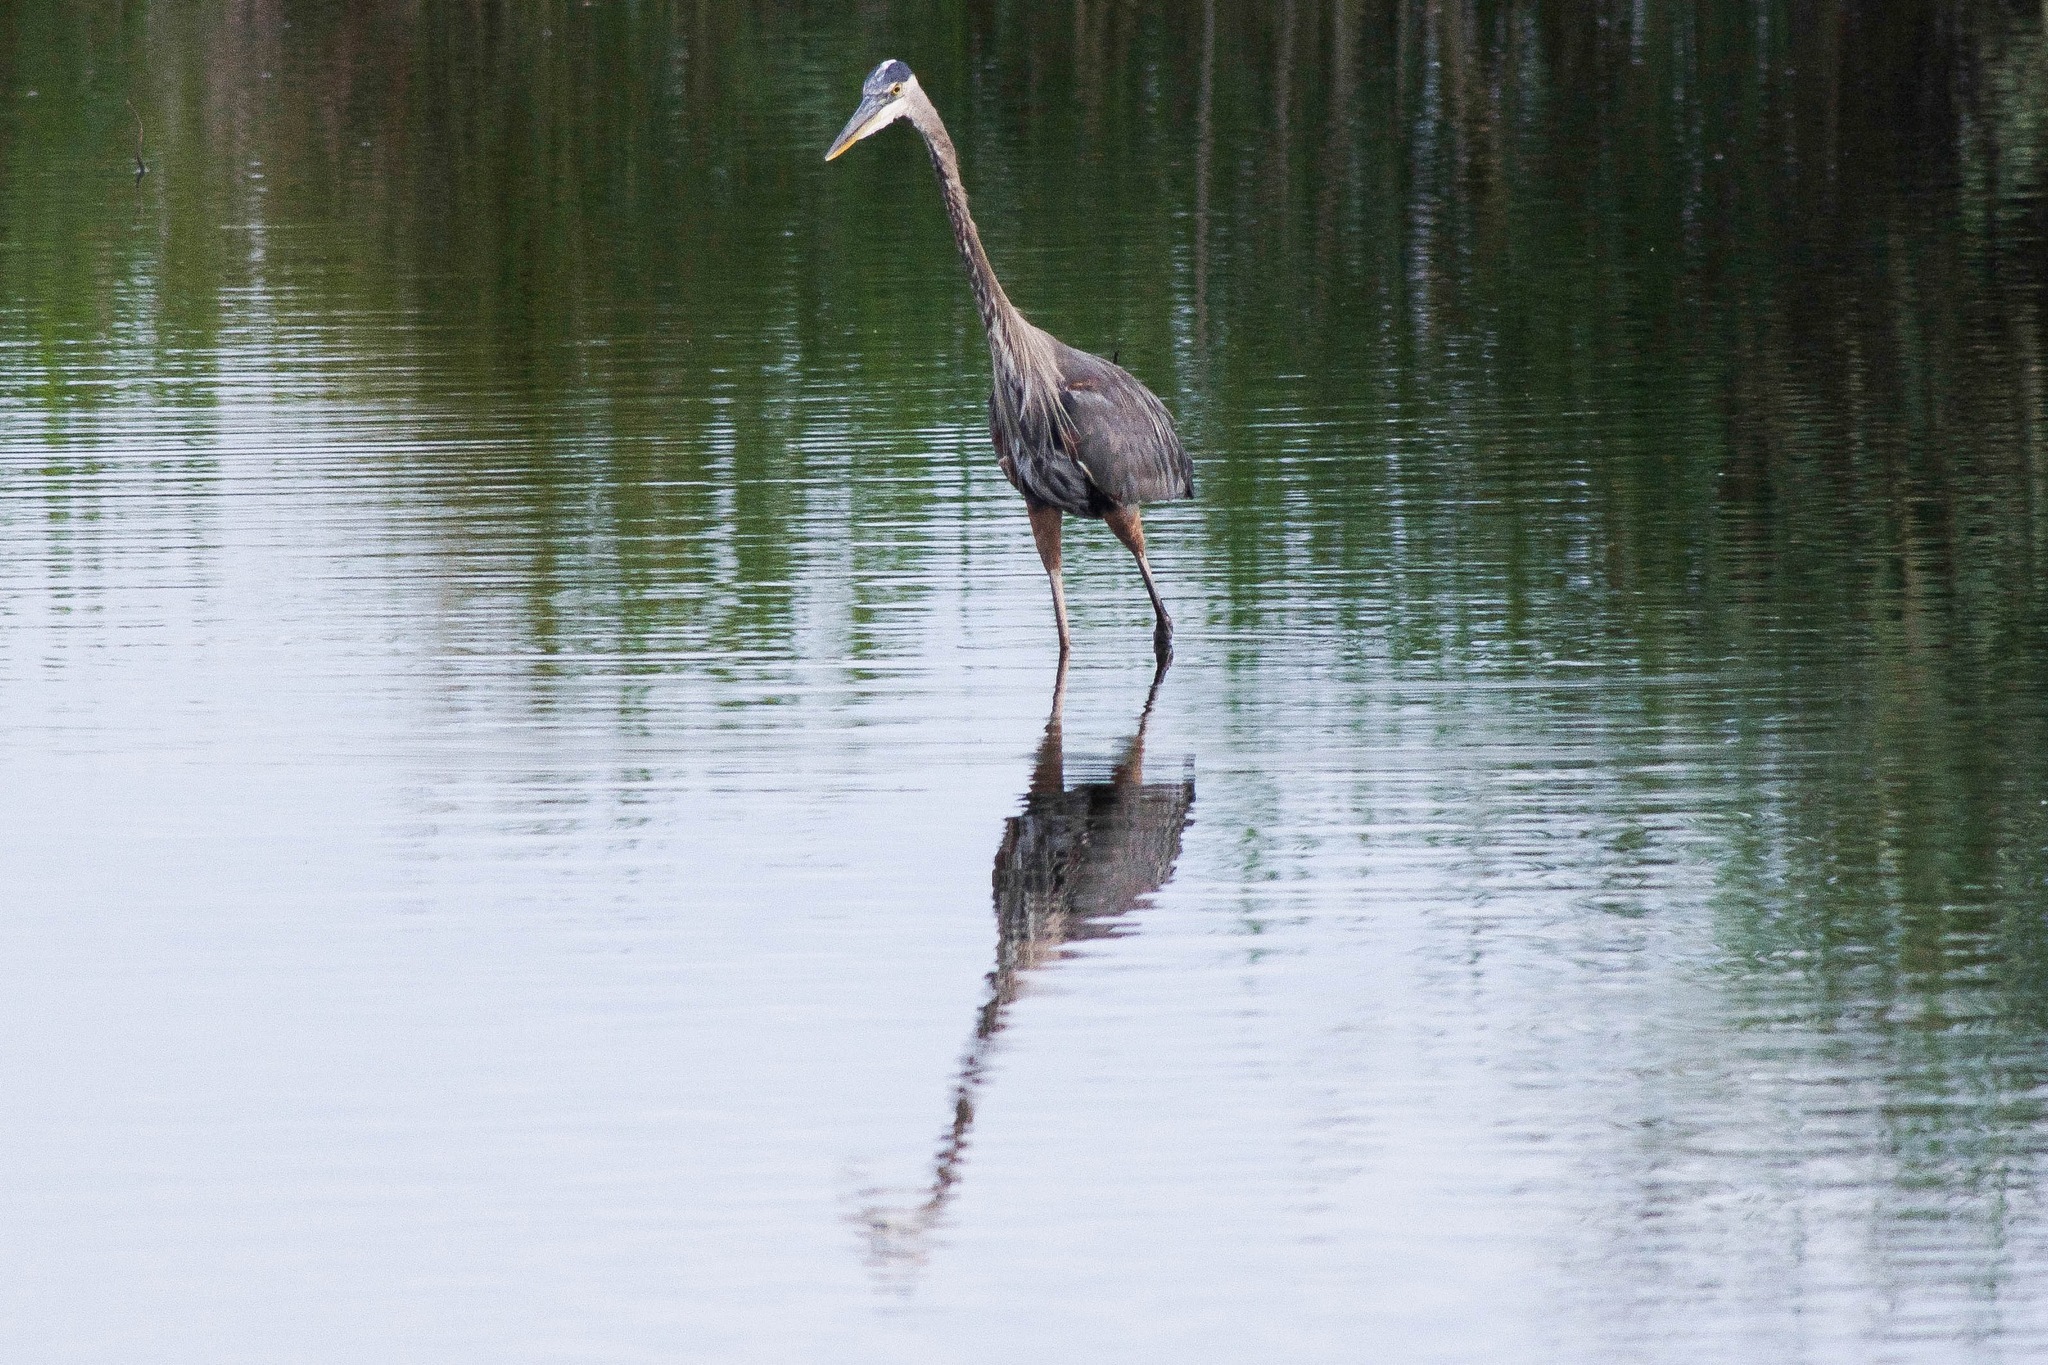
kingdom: Animalia
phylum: Chordata
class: Aves
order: Pelecaniformes
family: Ardeidae
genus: Ardea
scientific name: Ardea herodias
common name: Great blue heron
